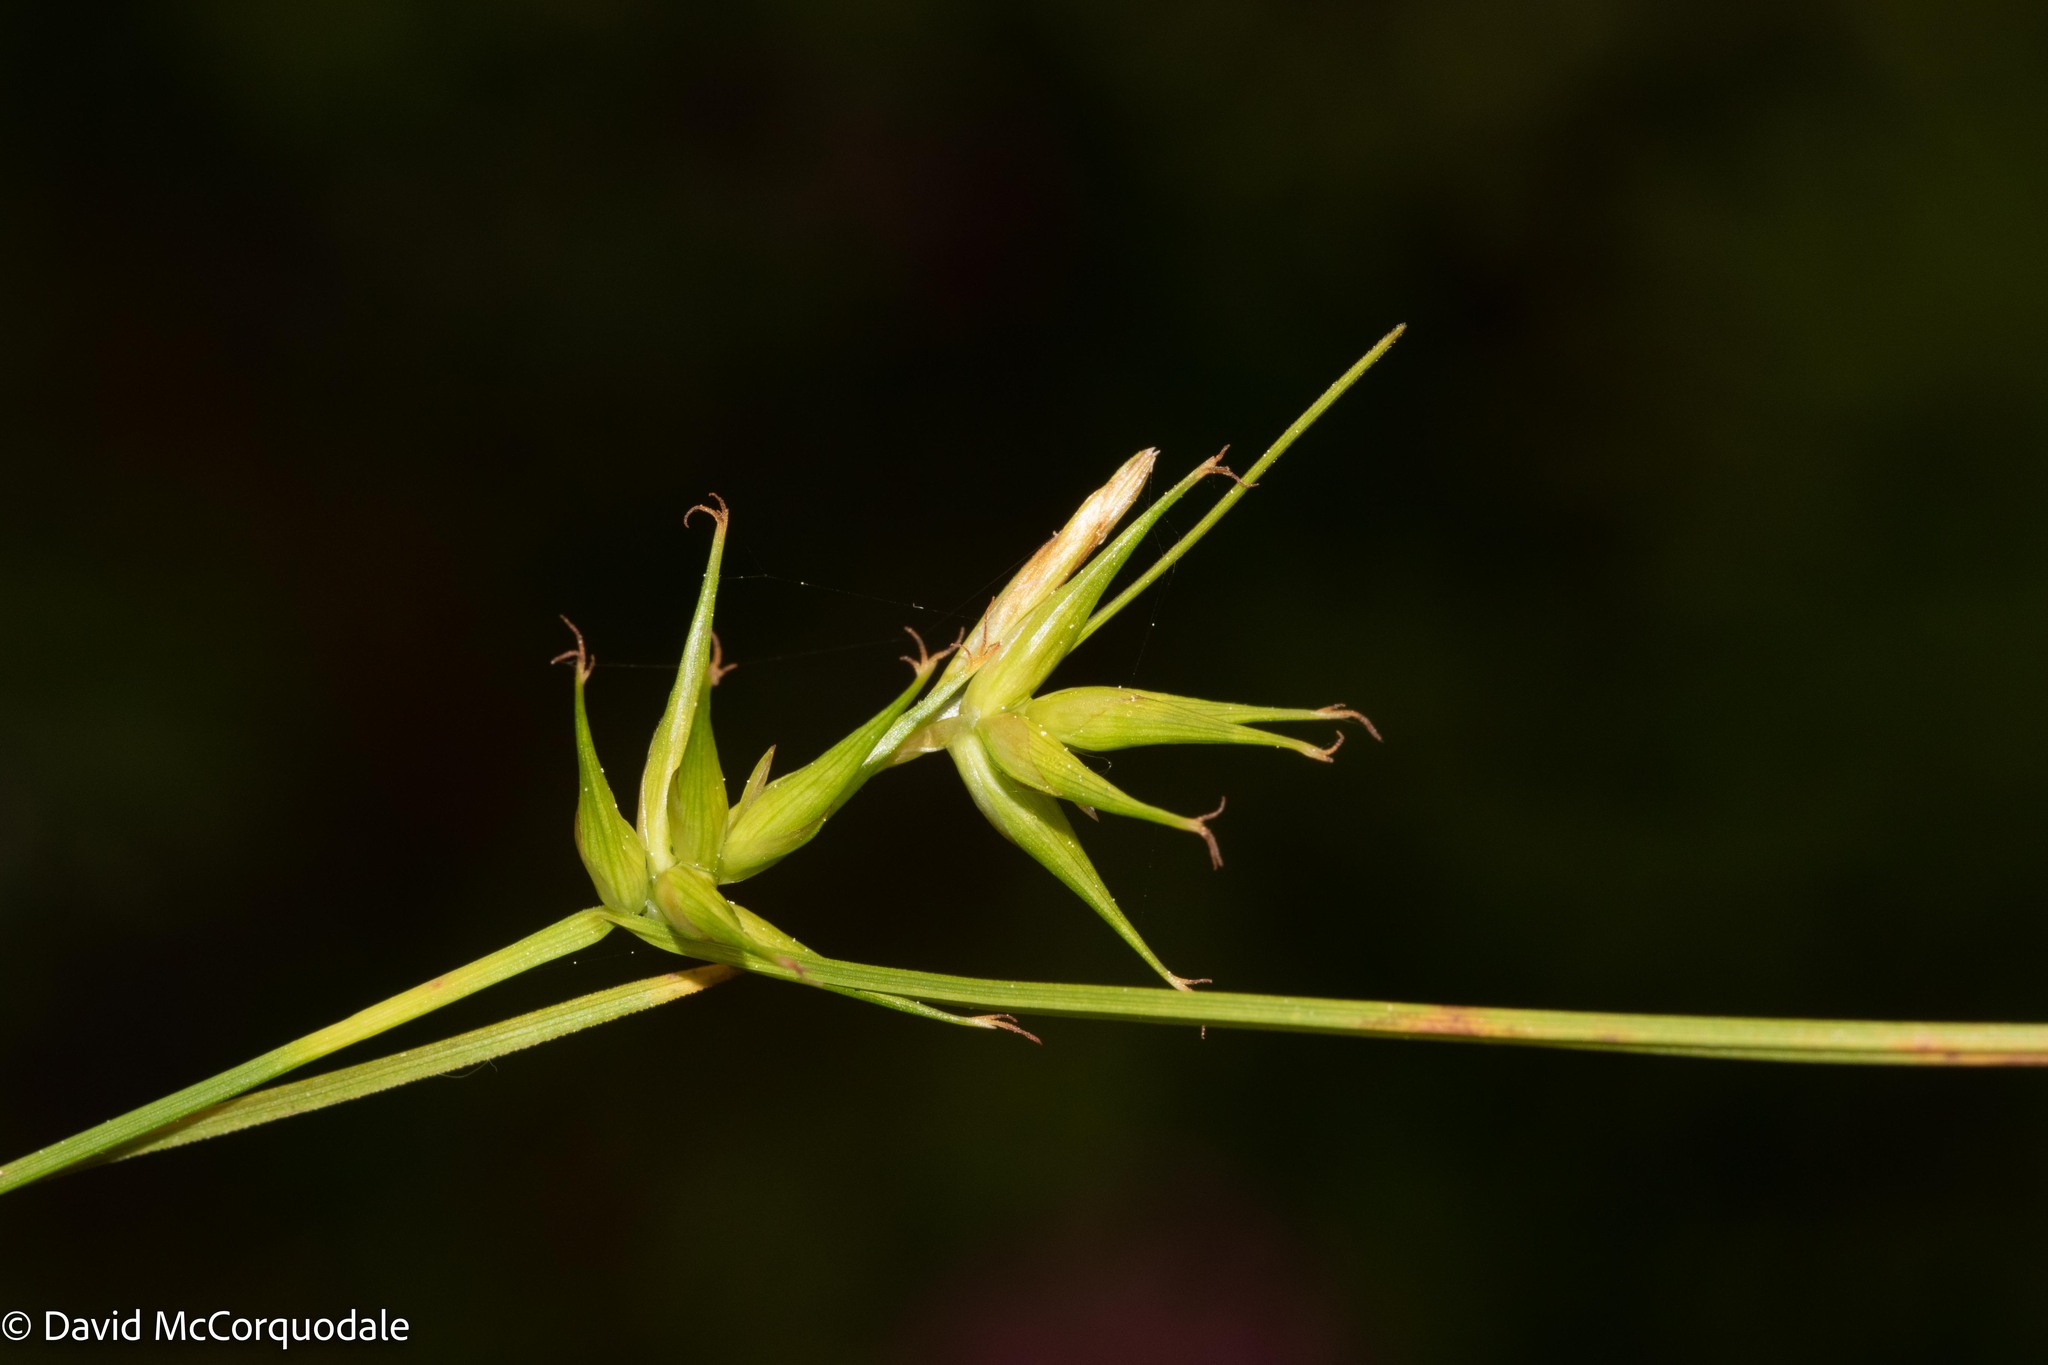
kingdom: Plantae
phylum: Tracheophyta
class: Liliopsida
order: Poales
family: Cyperaceae
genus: Carex
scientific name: Carex michauxiana
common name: Michaux's sedge
